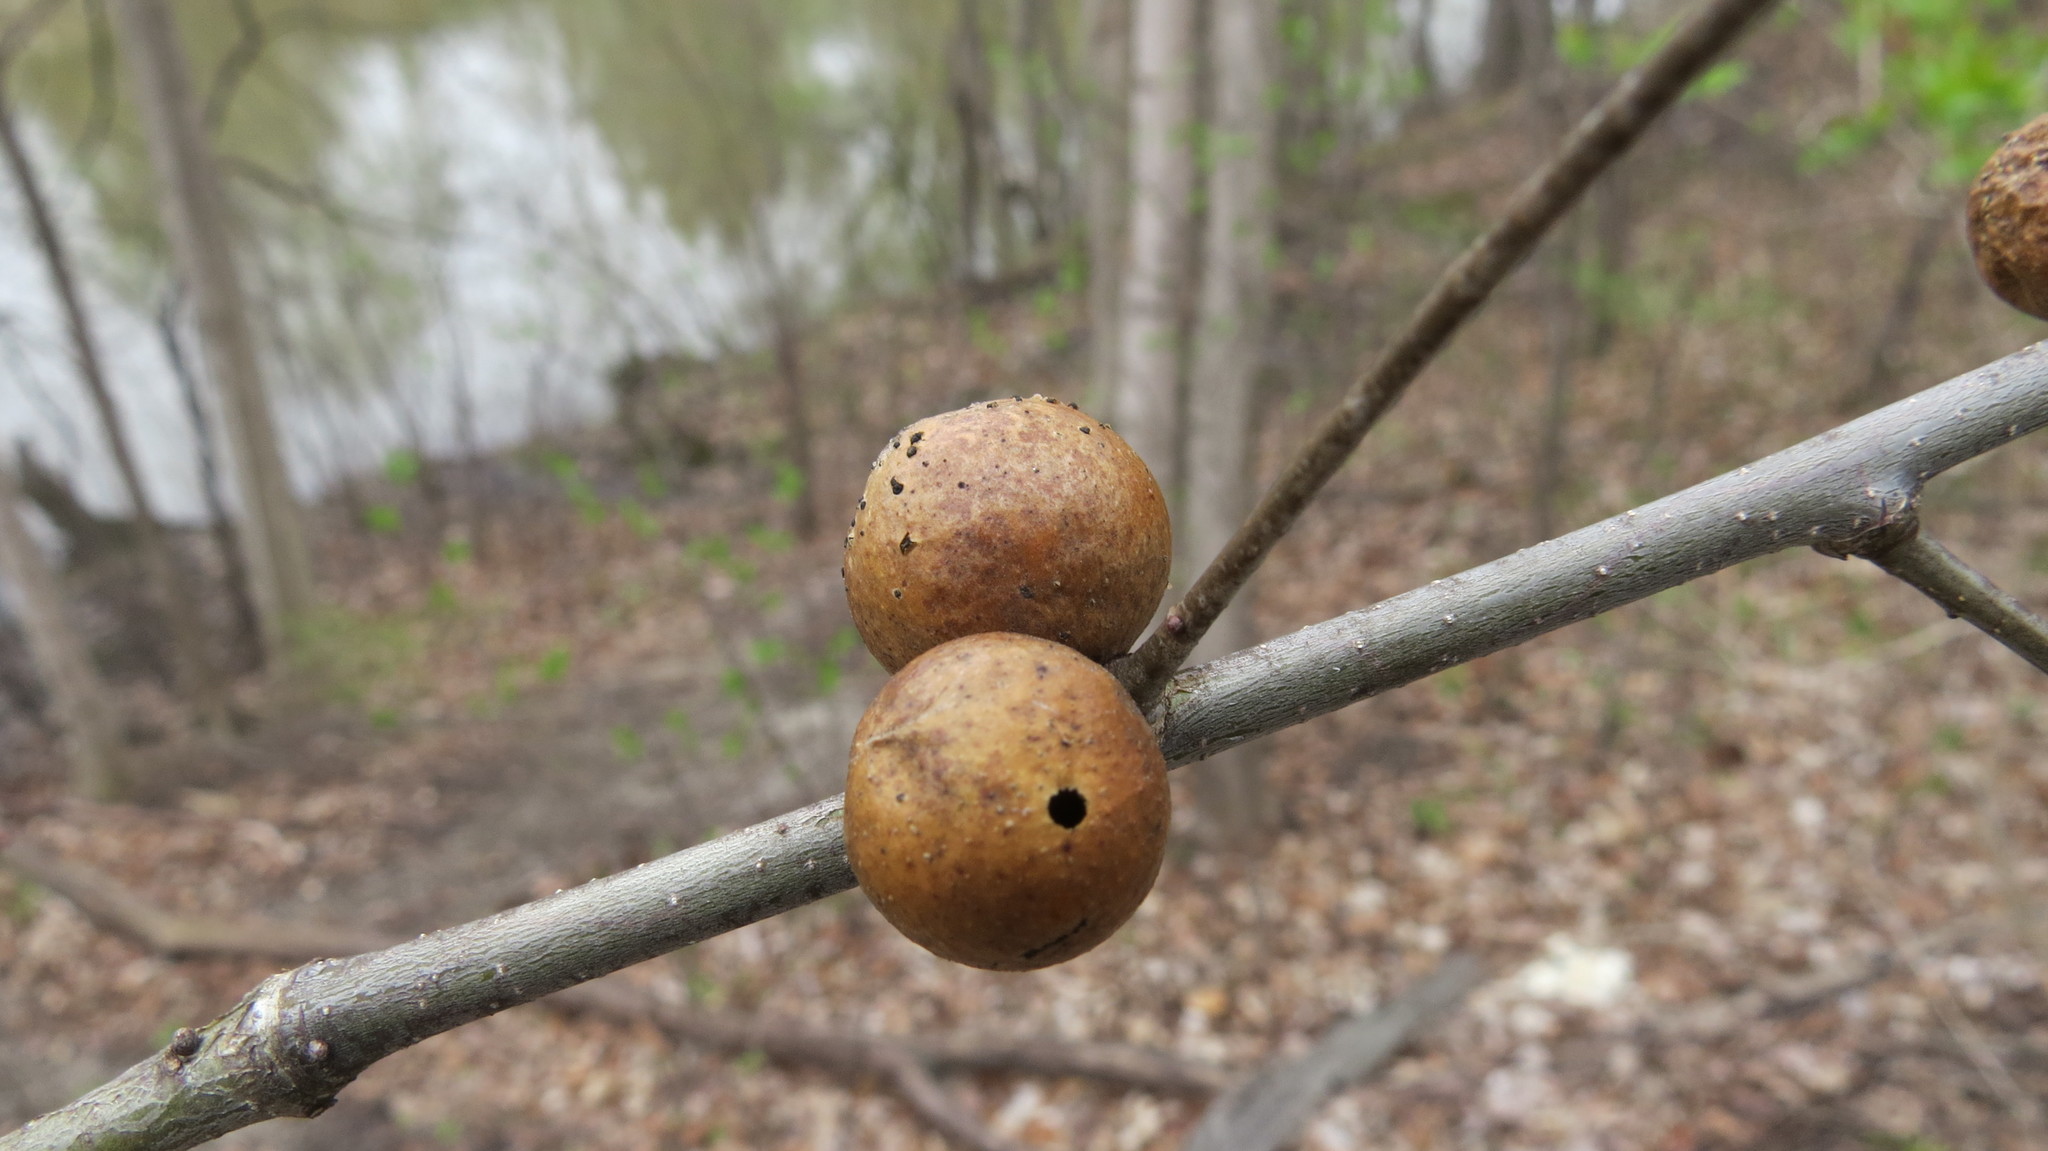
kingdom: Animalia
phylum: Arthropoda
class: Insecta
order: Hymenoptera
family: Cynipidae
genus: Disholcaspis
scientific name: Disholcaspis quercusglobulus
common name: Round bullet gall wasp
